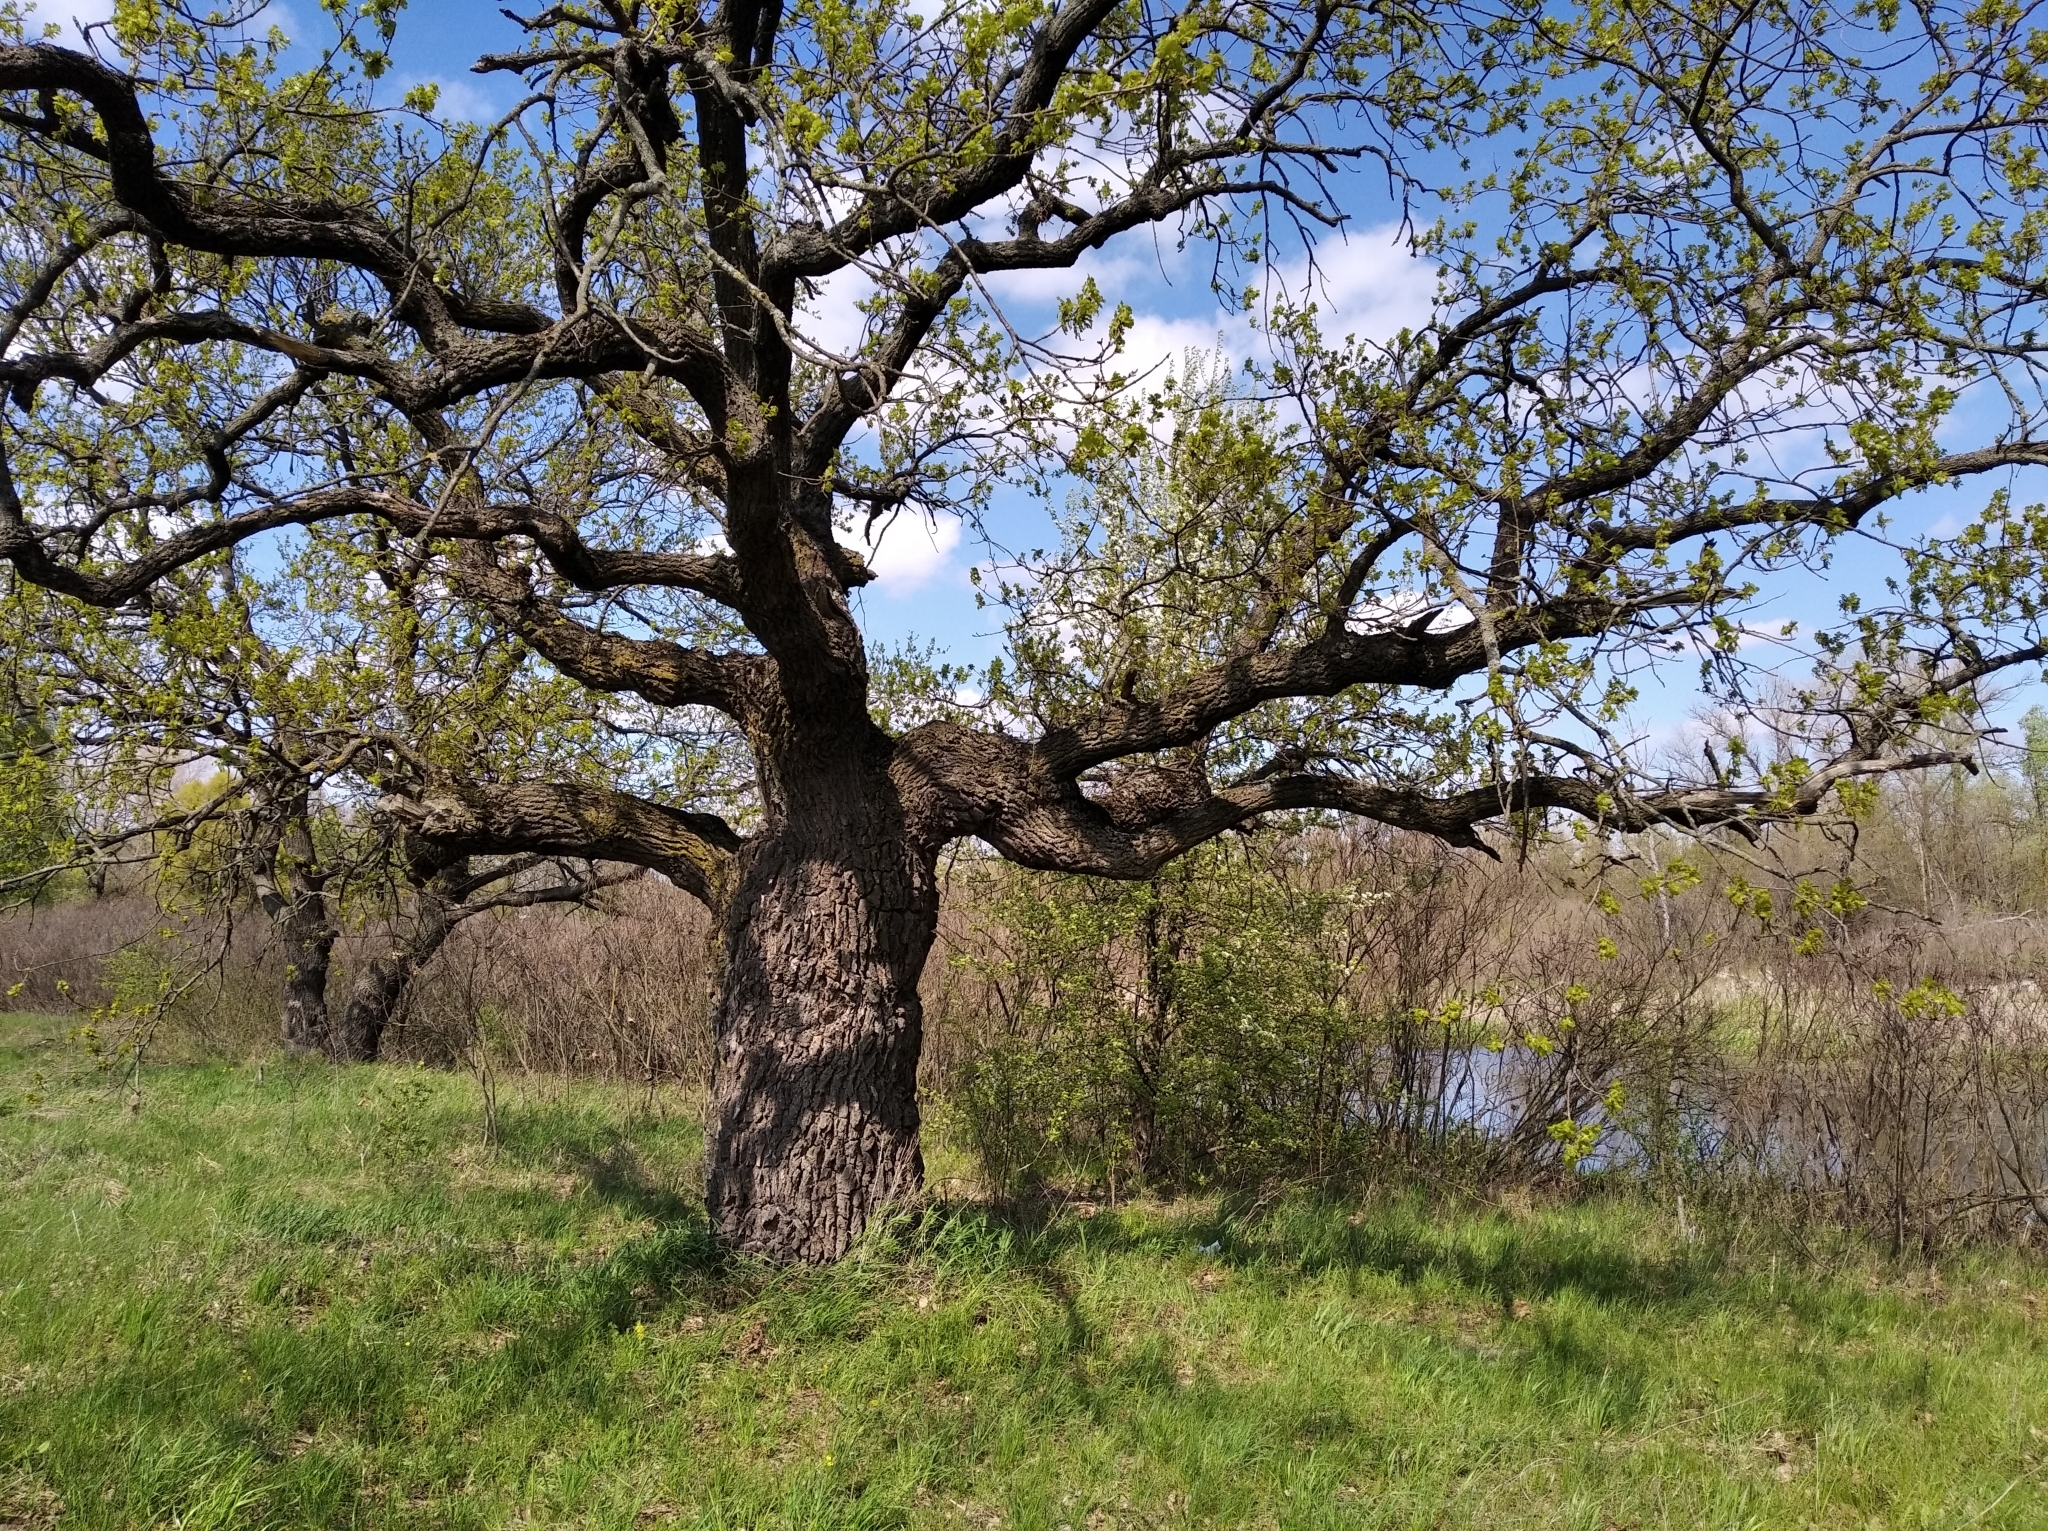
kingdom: Plantae
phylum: Tracheophyta
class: Magnoliopsida
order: Fagales
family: Fagaceae
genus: Quercus
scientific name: Quercus robur
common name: Pedunculate oak
